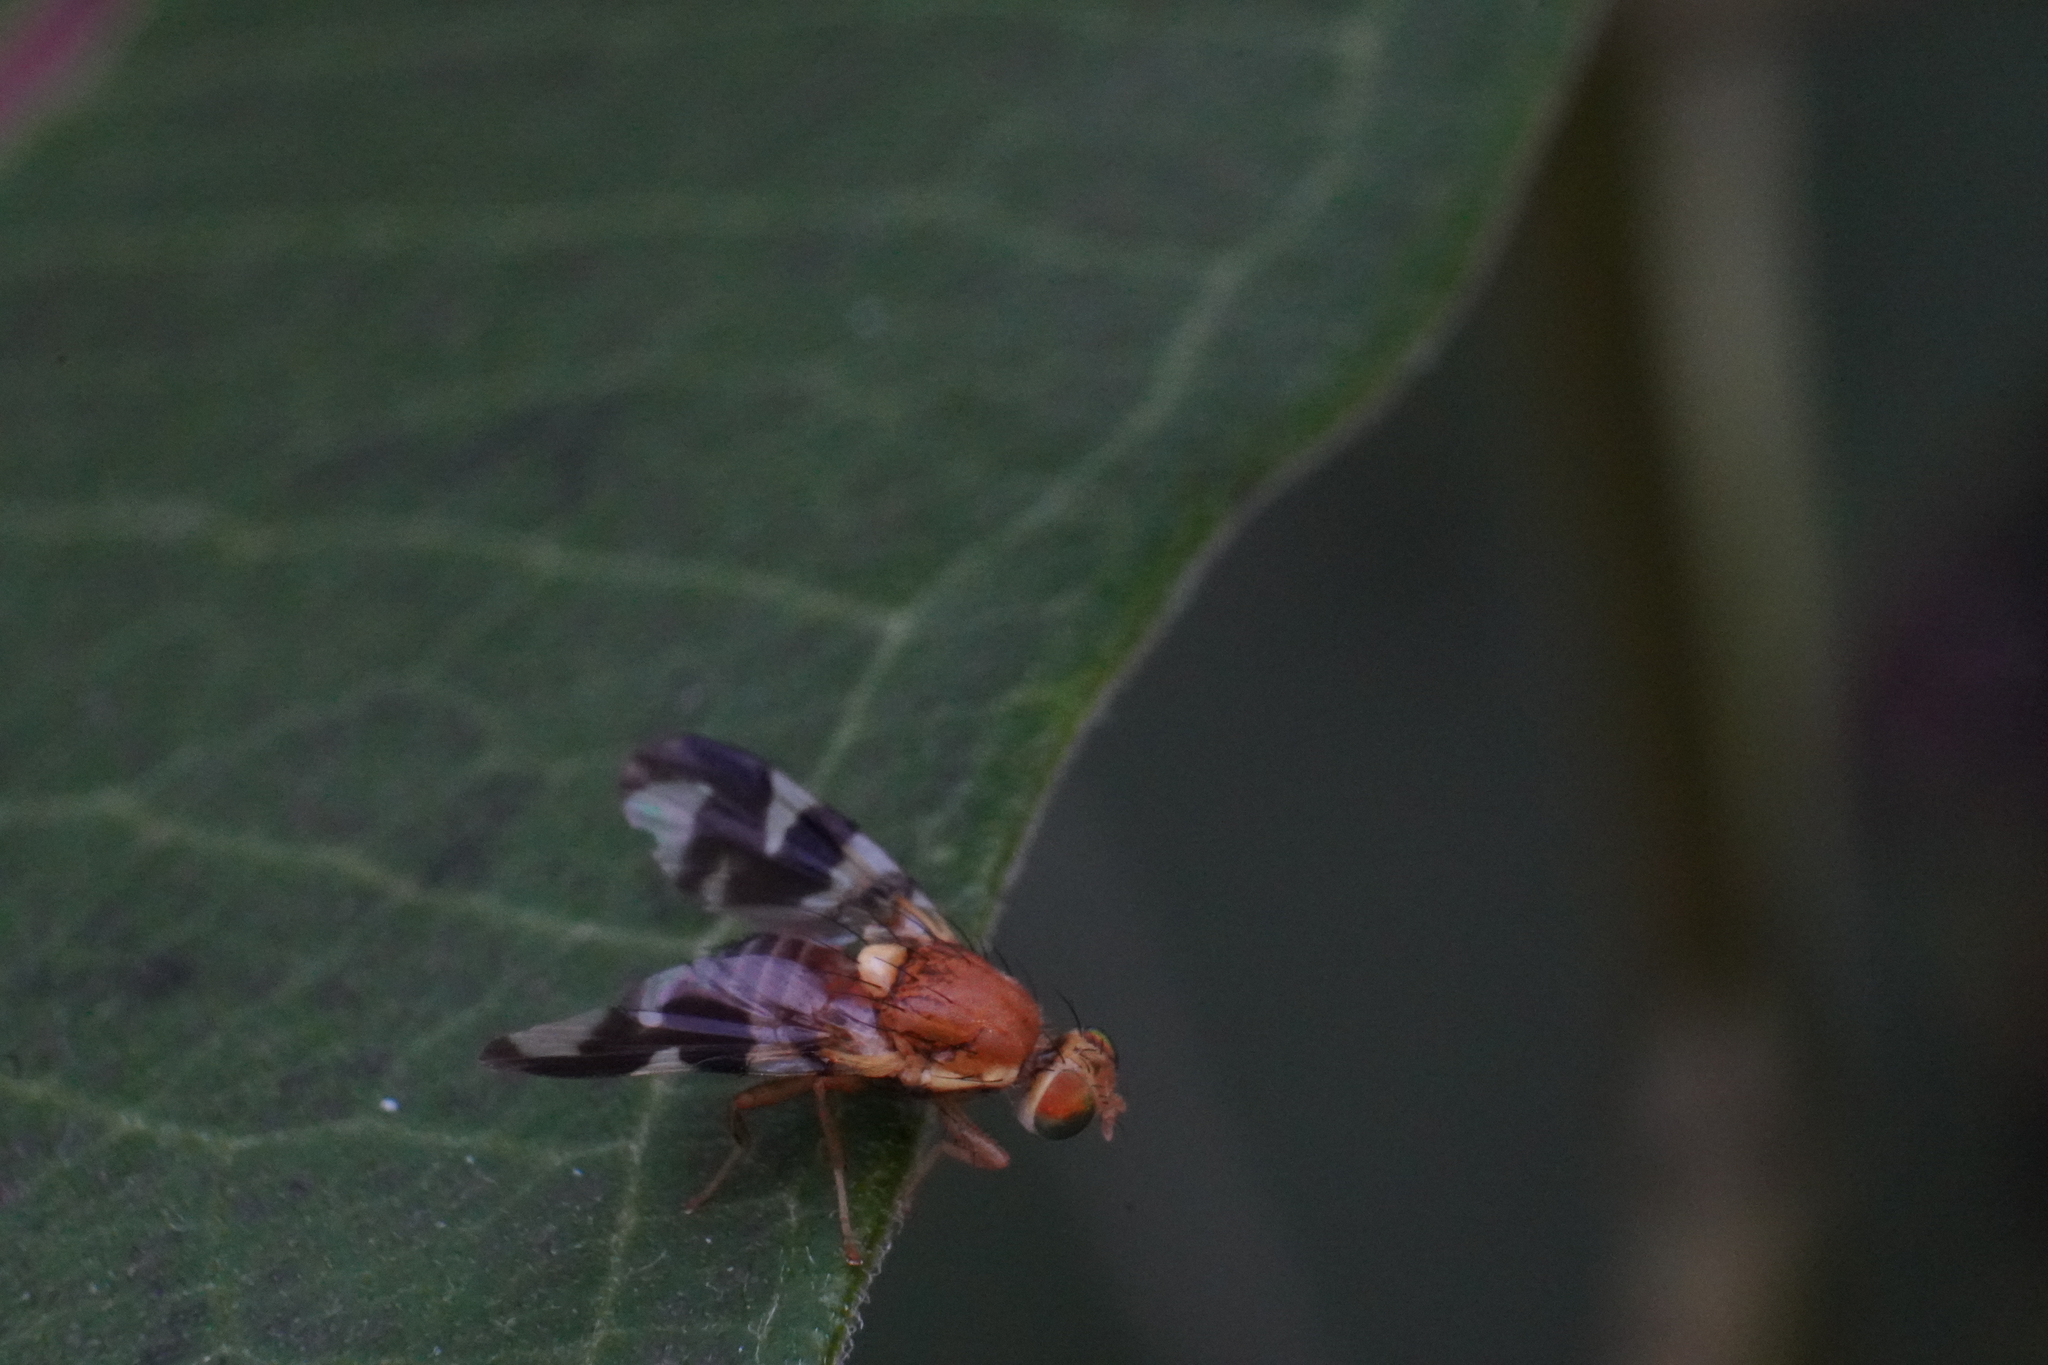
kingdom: Animalia
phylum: Arthropoda
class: Insecta
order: Diptera
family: Tephritidae
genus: Rhagoletis
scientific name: Rhagoletis suavis
